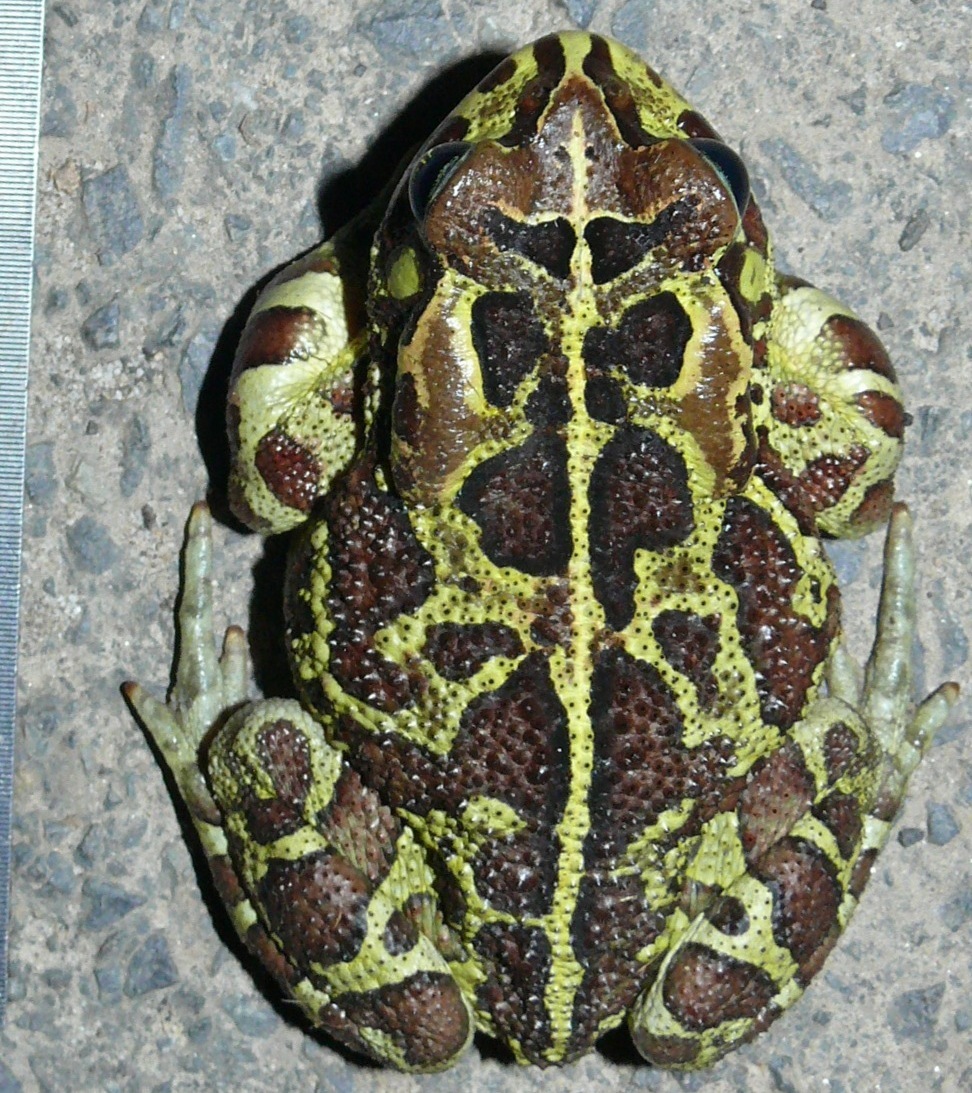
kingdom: Animalia
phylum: Chordata
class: Amphibia
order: Anura
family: Bufonidae
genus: Sclerophrys
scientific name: Sclerophrys pantherina
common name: Panther toad
